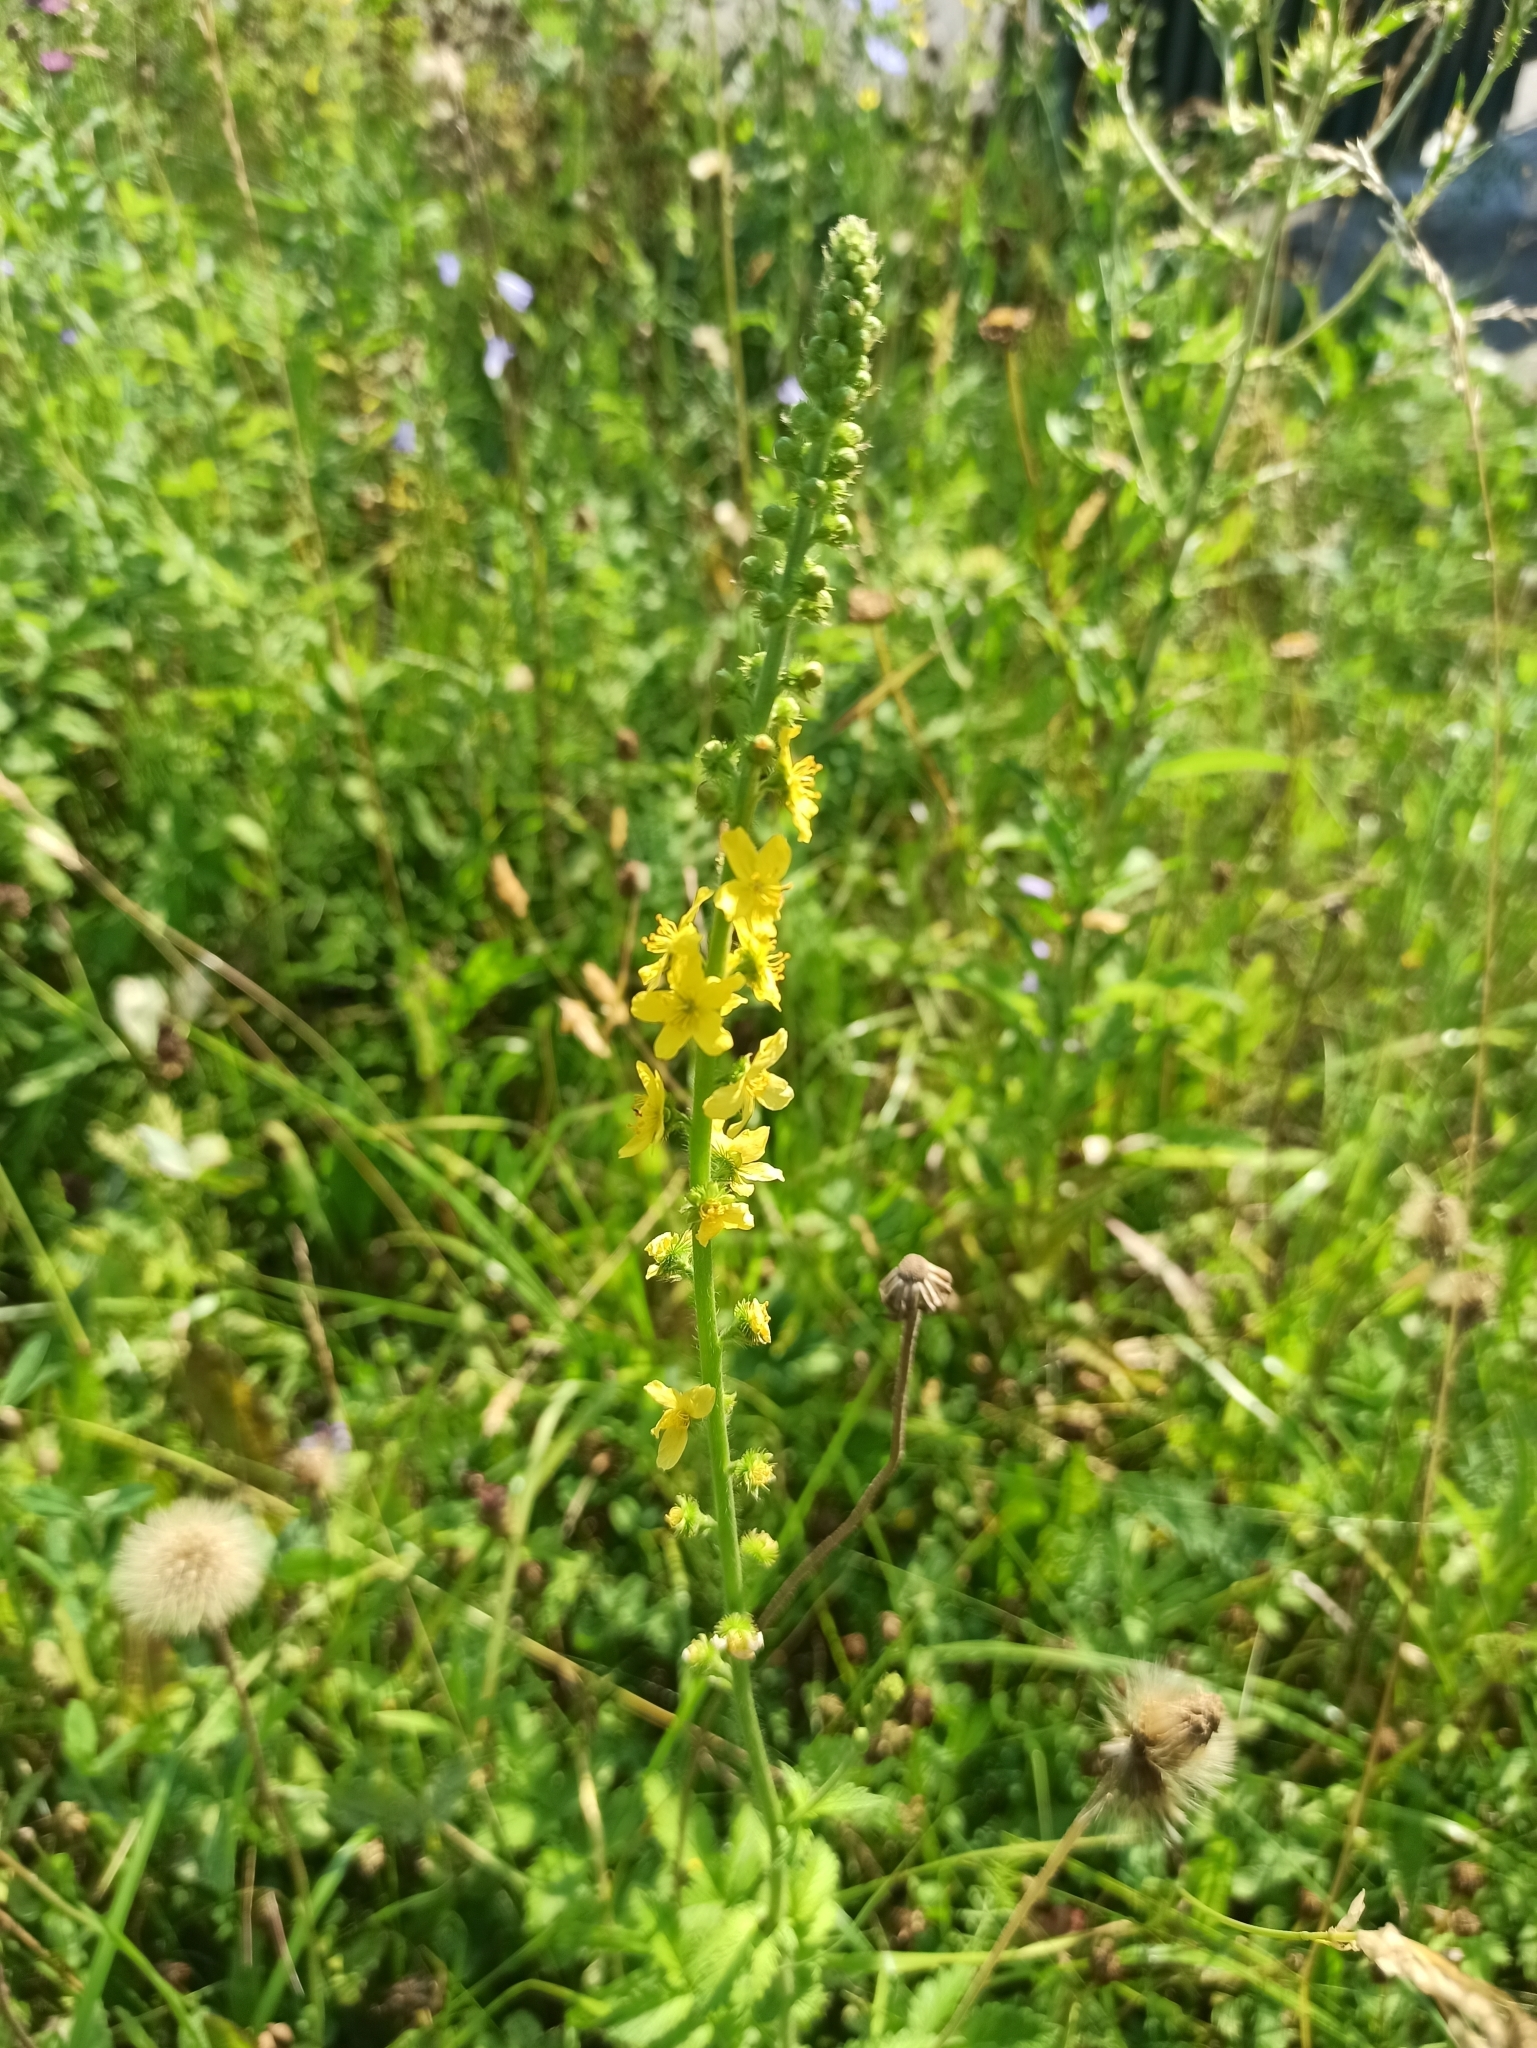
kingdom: Plantae
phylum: Tracheophyta
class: Magnoliopsida
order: Rosales
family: Rosaceae
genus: Agrimonia
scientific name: Agrimonia eupatoria
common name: Agrimony
